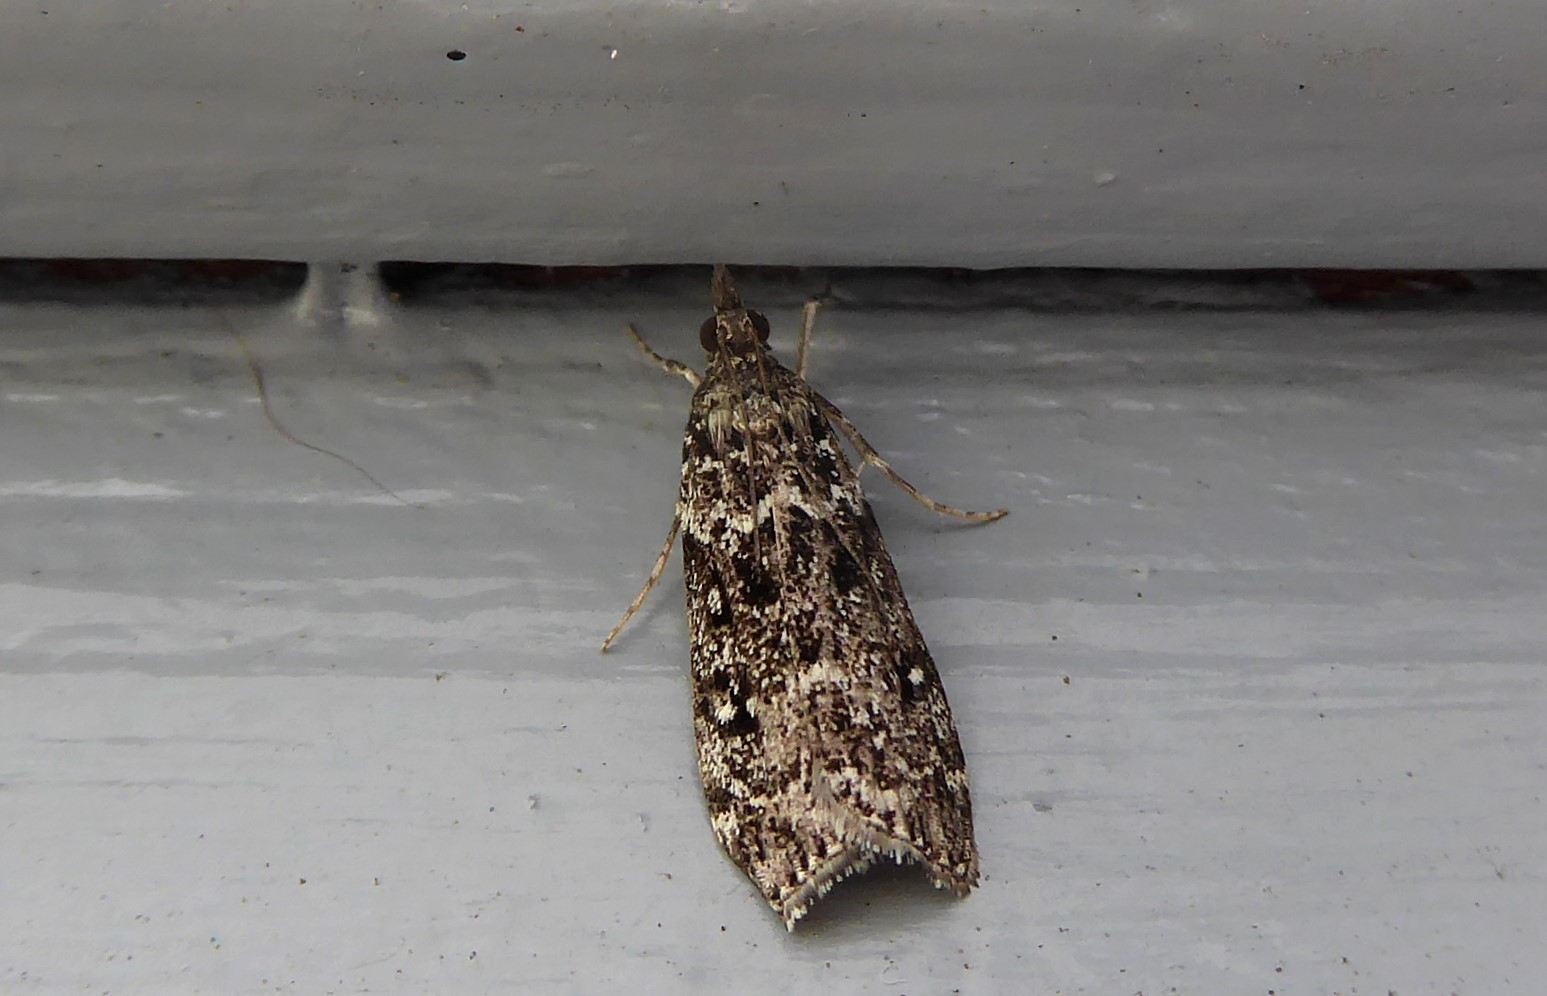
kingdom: Animalia
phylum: Arthropoda
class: Insecta
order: Lepidoptera
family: Crambidae
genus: Eudonia
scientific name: Eudonia philerga
